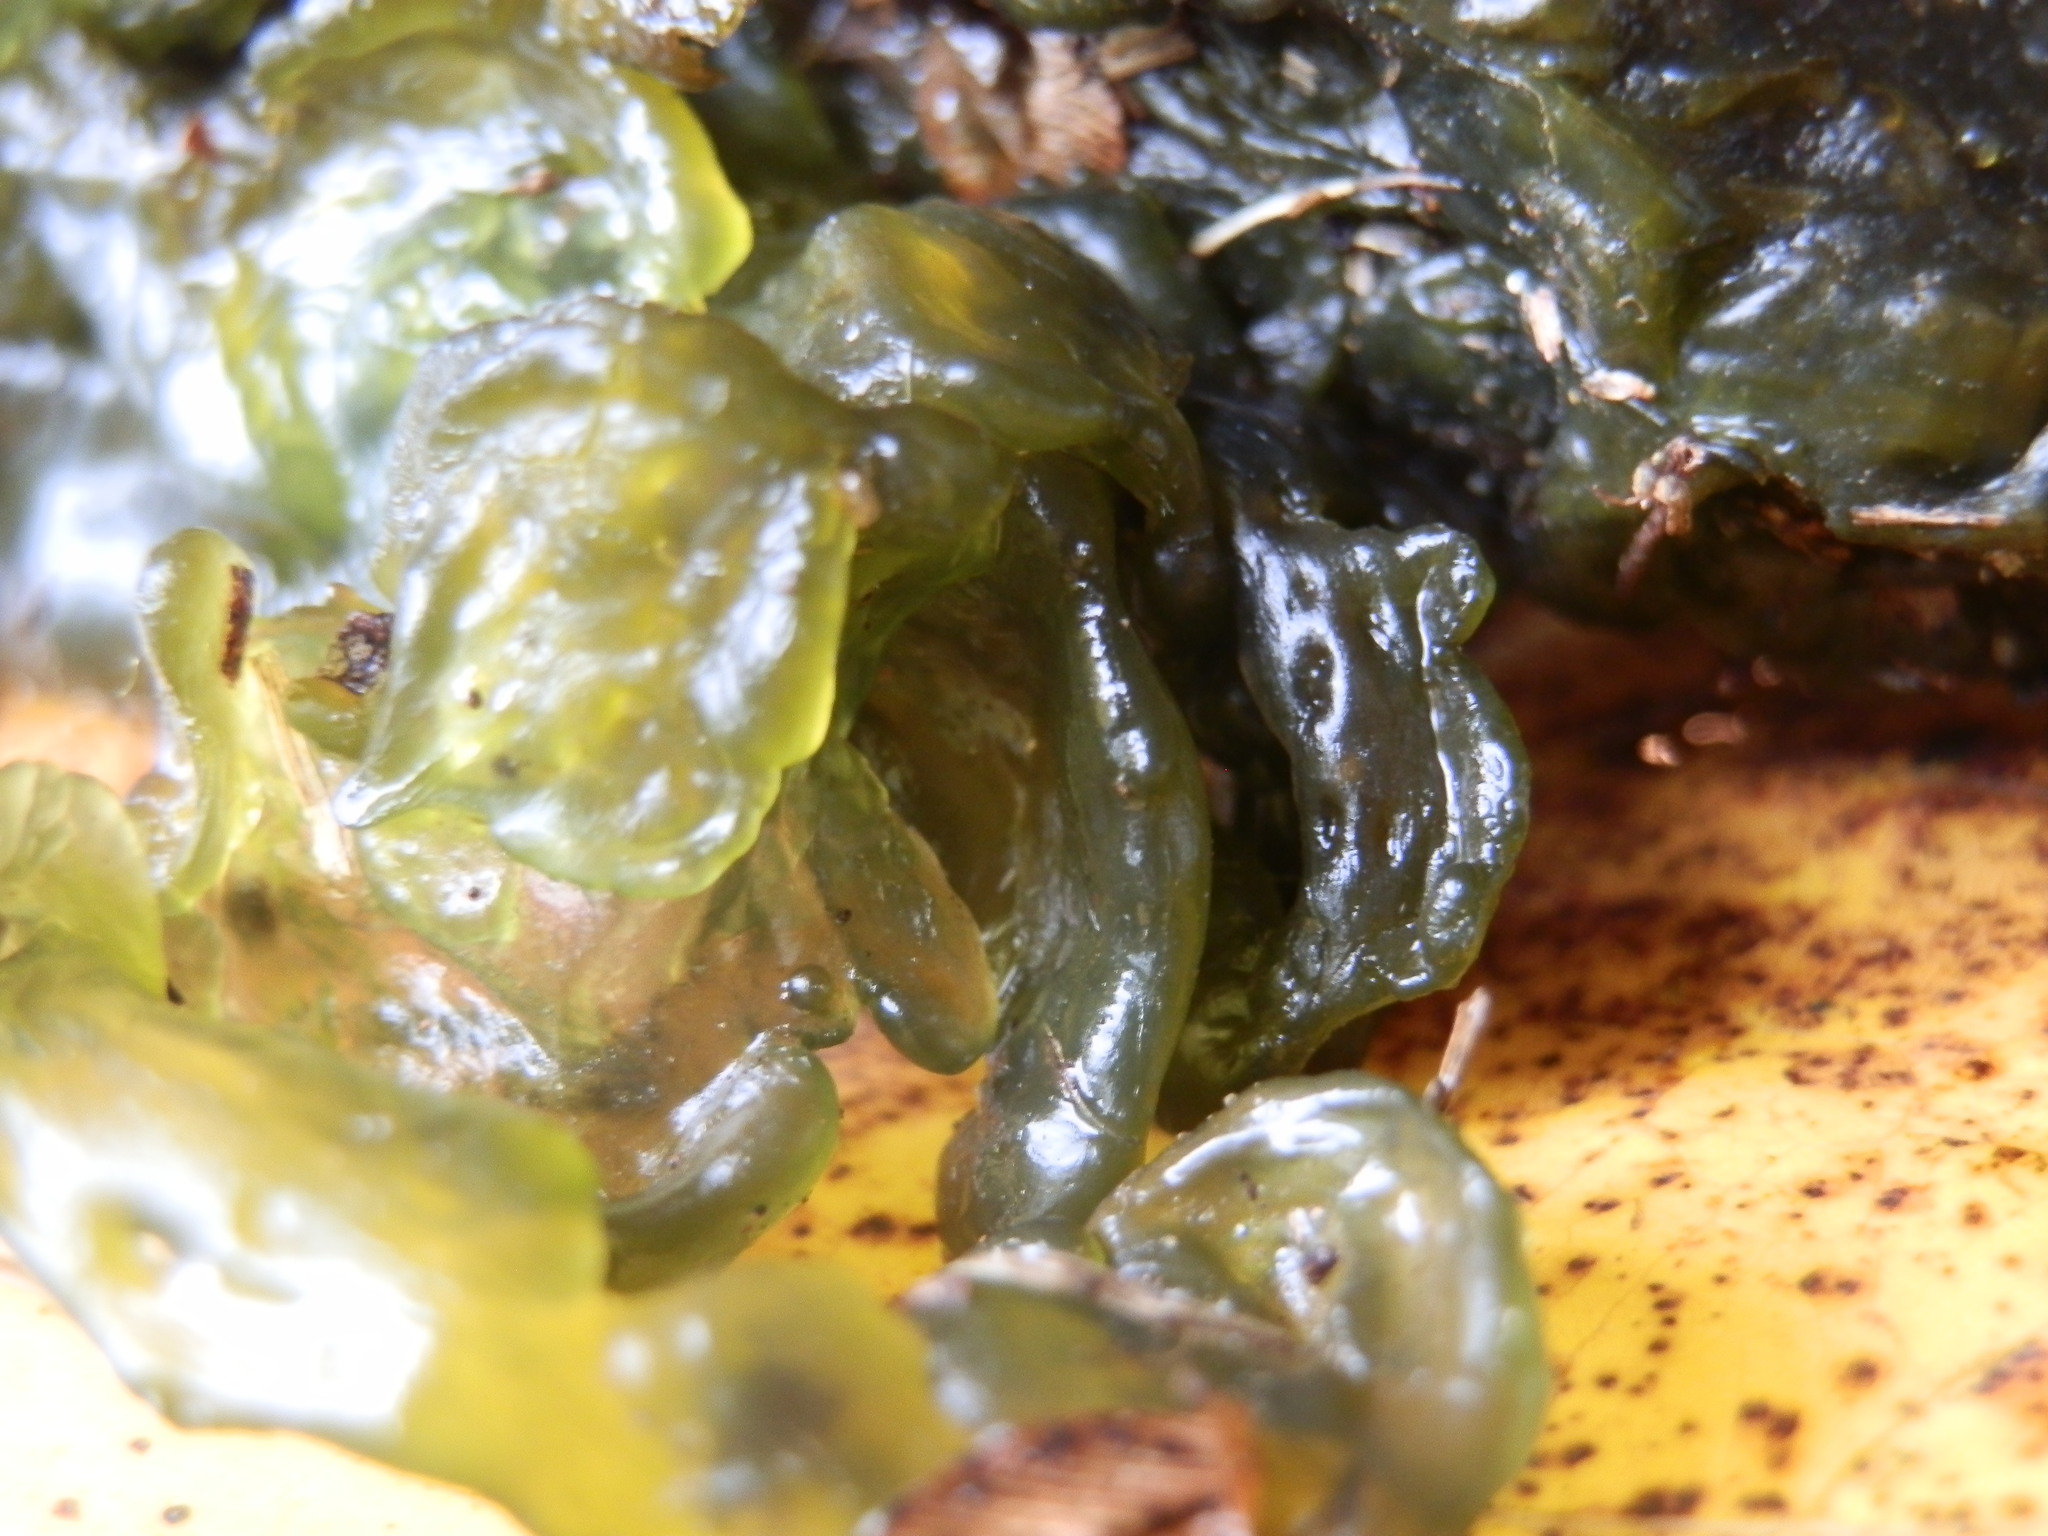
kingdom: Bacteria
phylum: Cyanobacteria
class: Cyanobacteriia
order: Cyanobacteriales
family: Nostocaceae
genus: Nostoc
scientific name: Nostoc commune
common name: Star jelly
